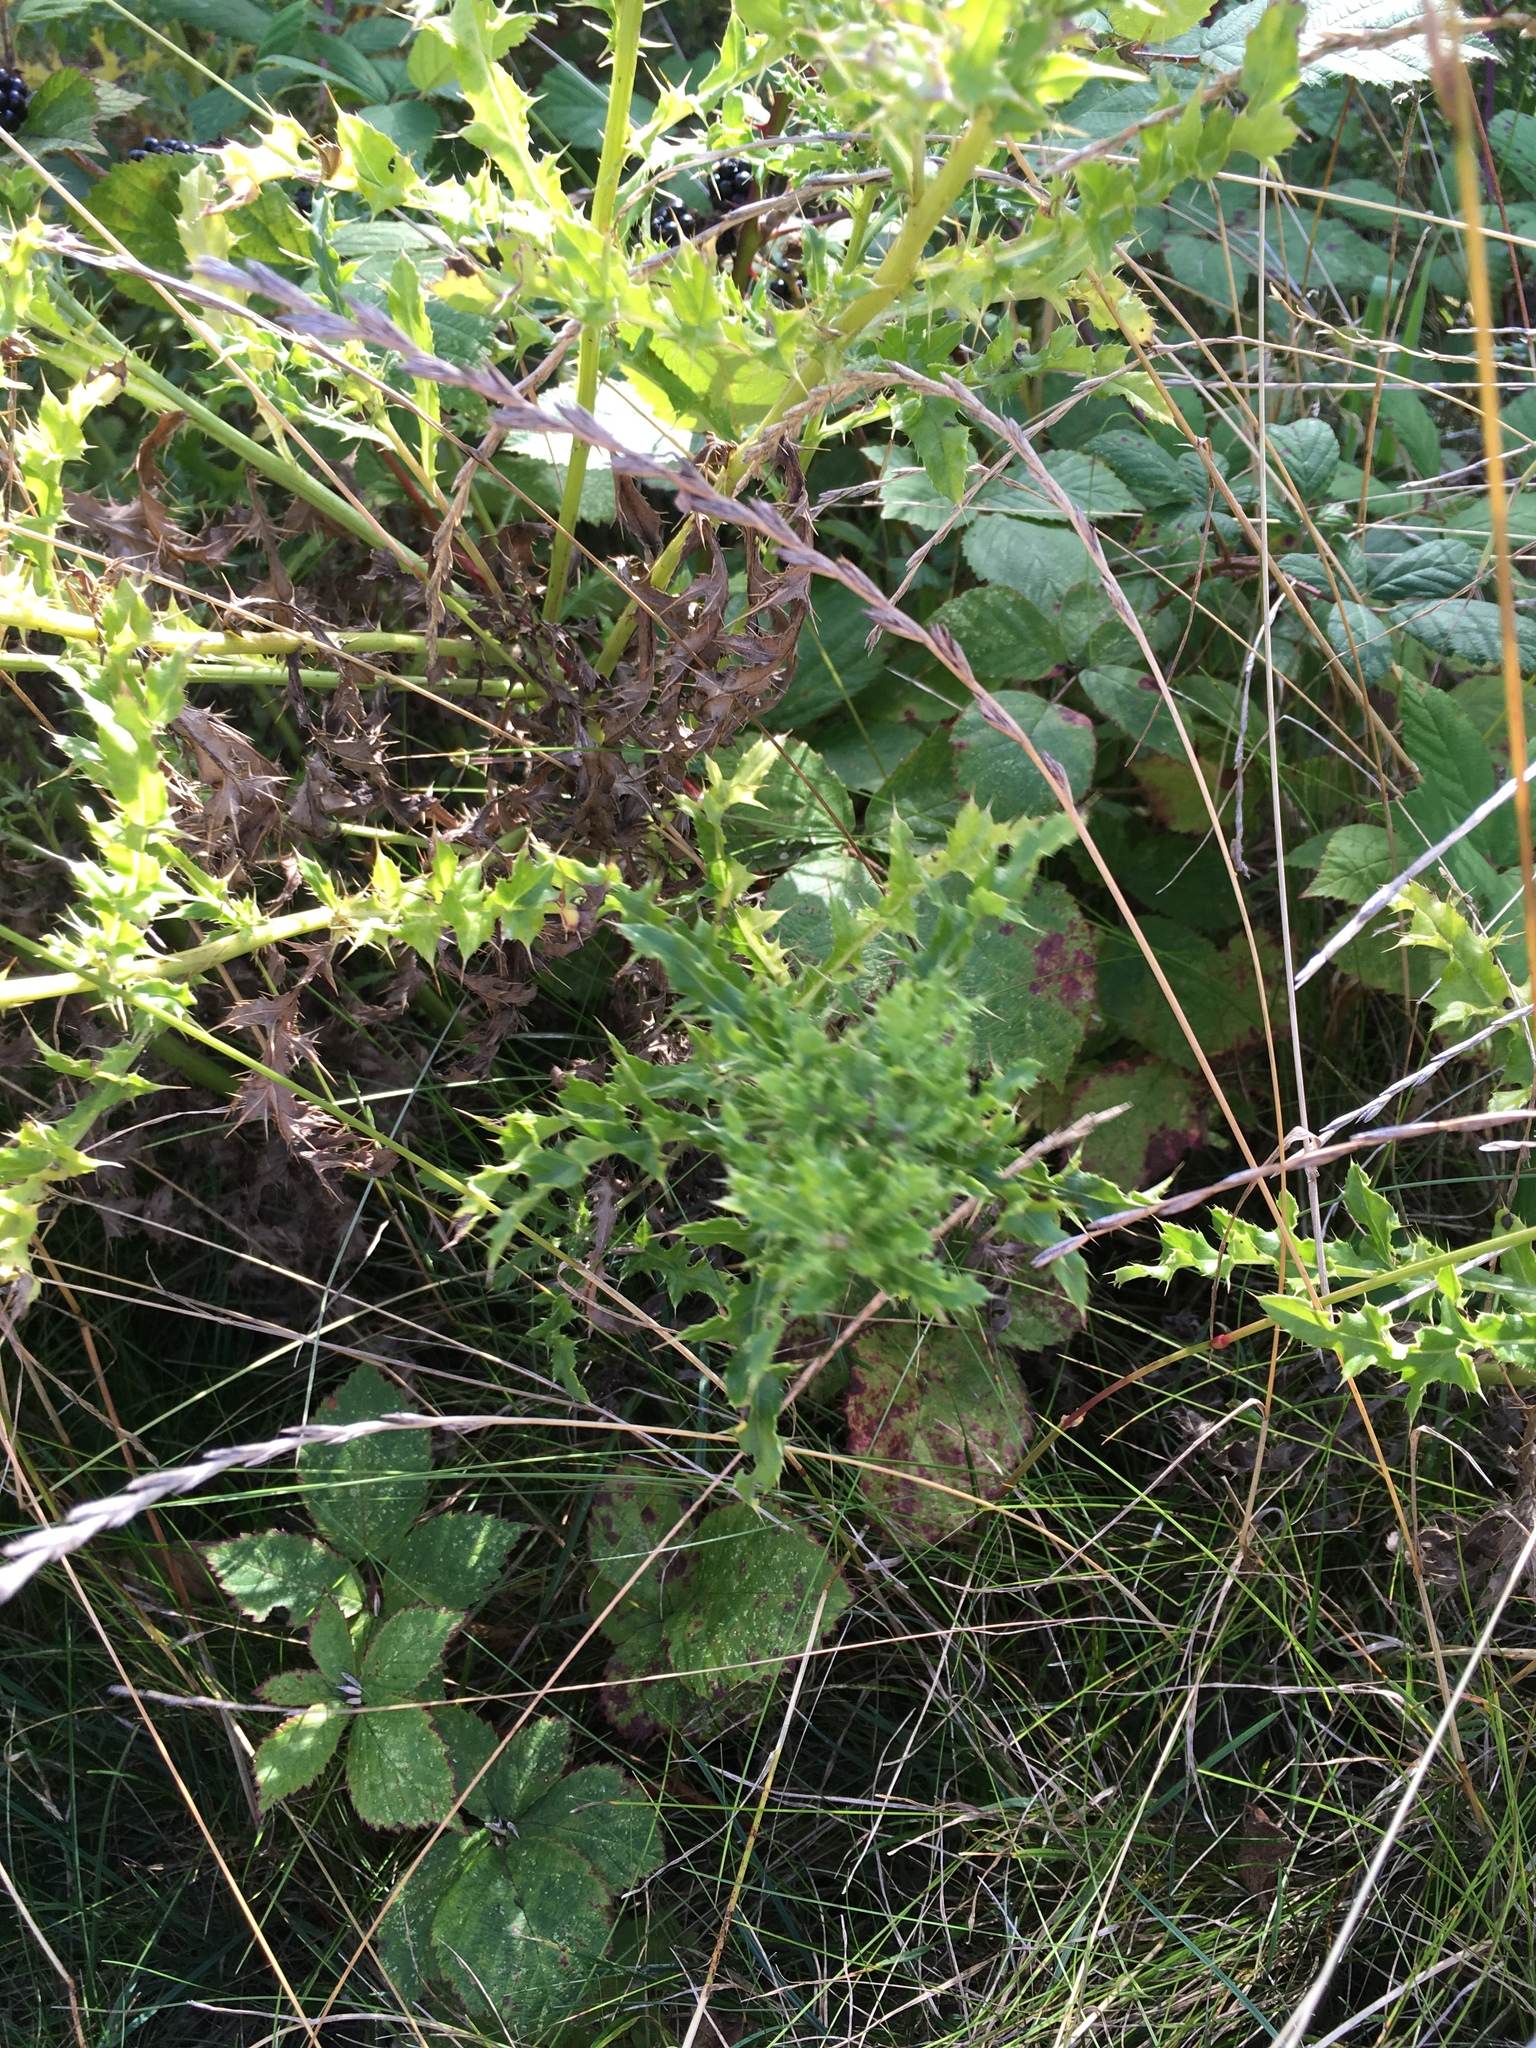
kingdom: Plantae
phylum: Tracheophyta
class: Magnoliopsida
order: Asterales
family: Asteraceae
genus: Cirsium
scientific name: Cirsium arvense
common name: Creeping thistle
